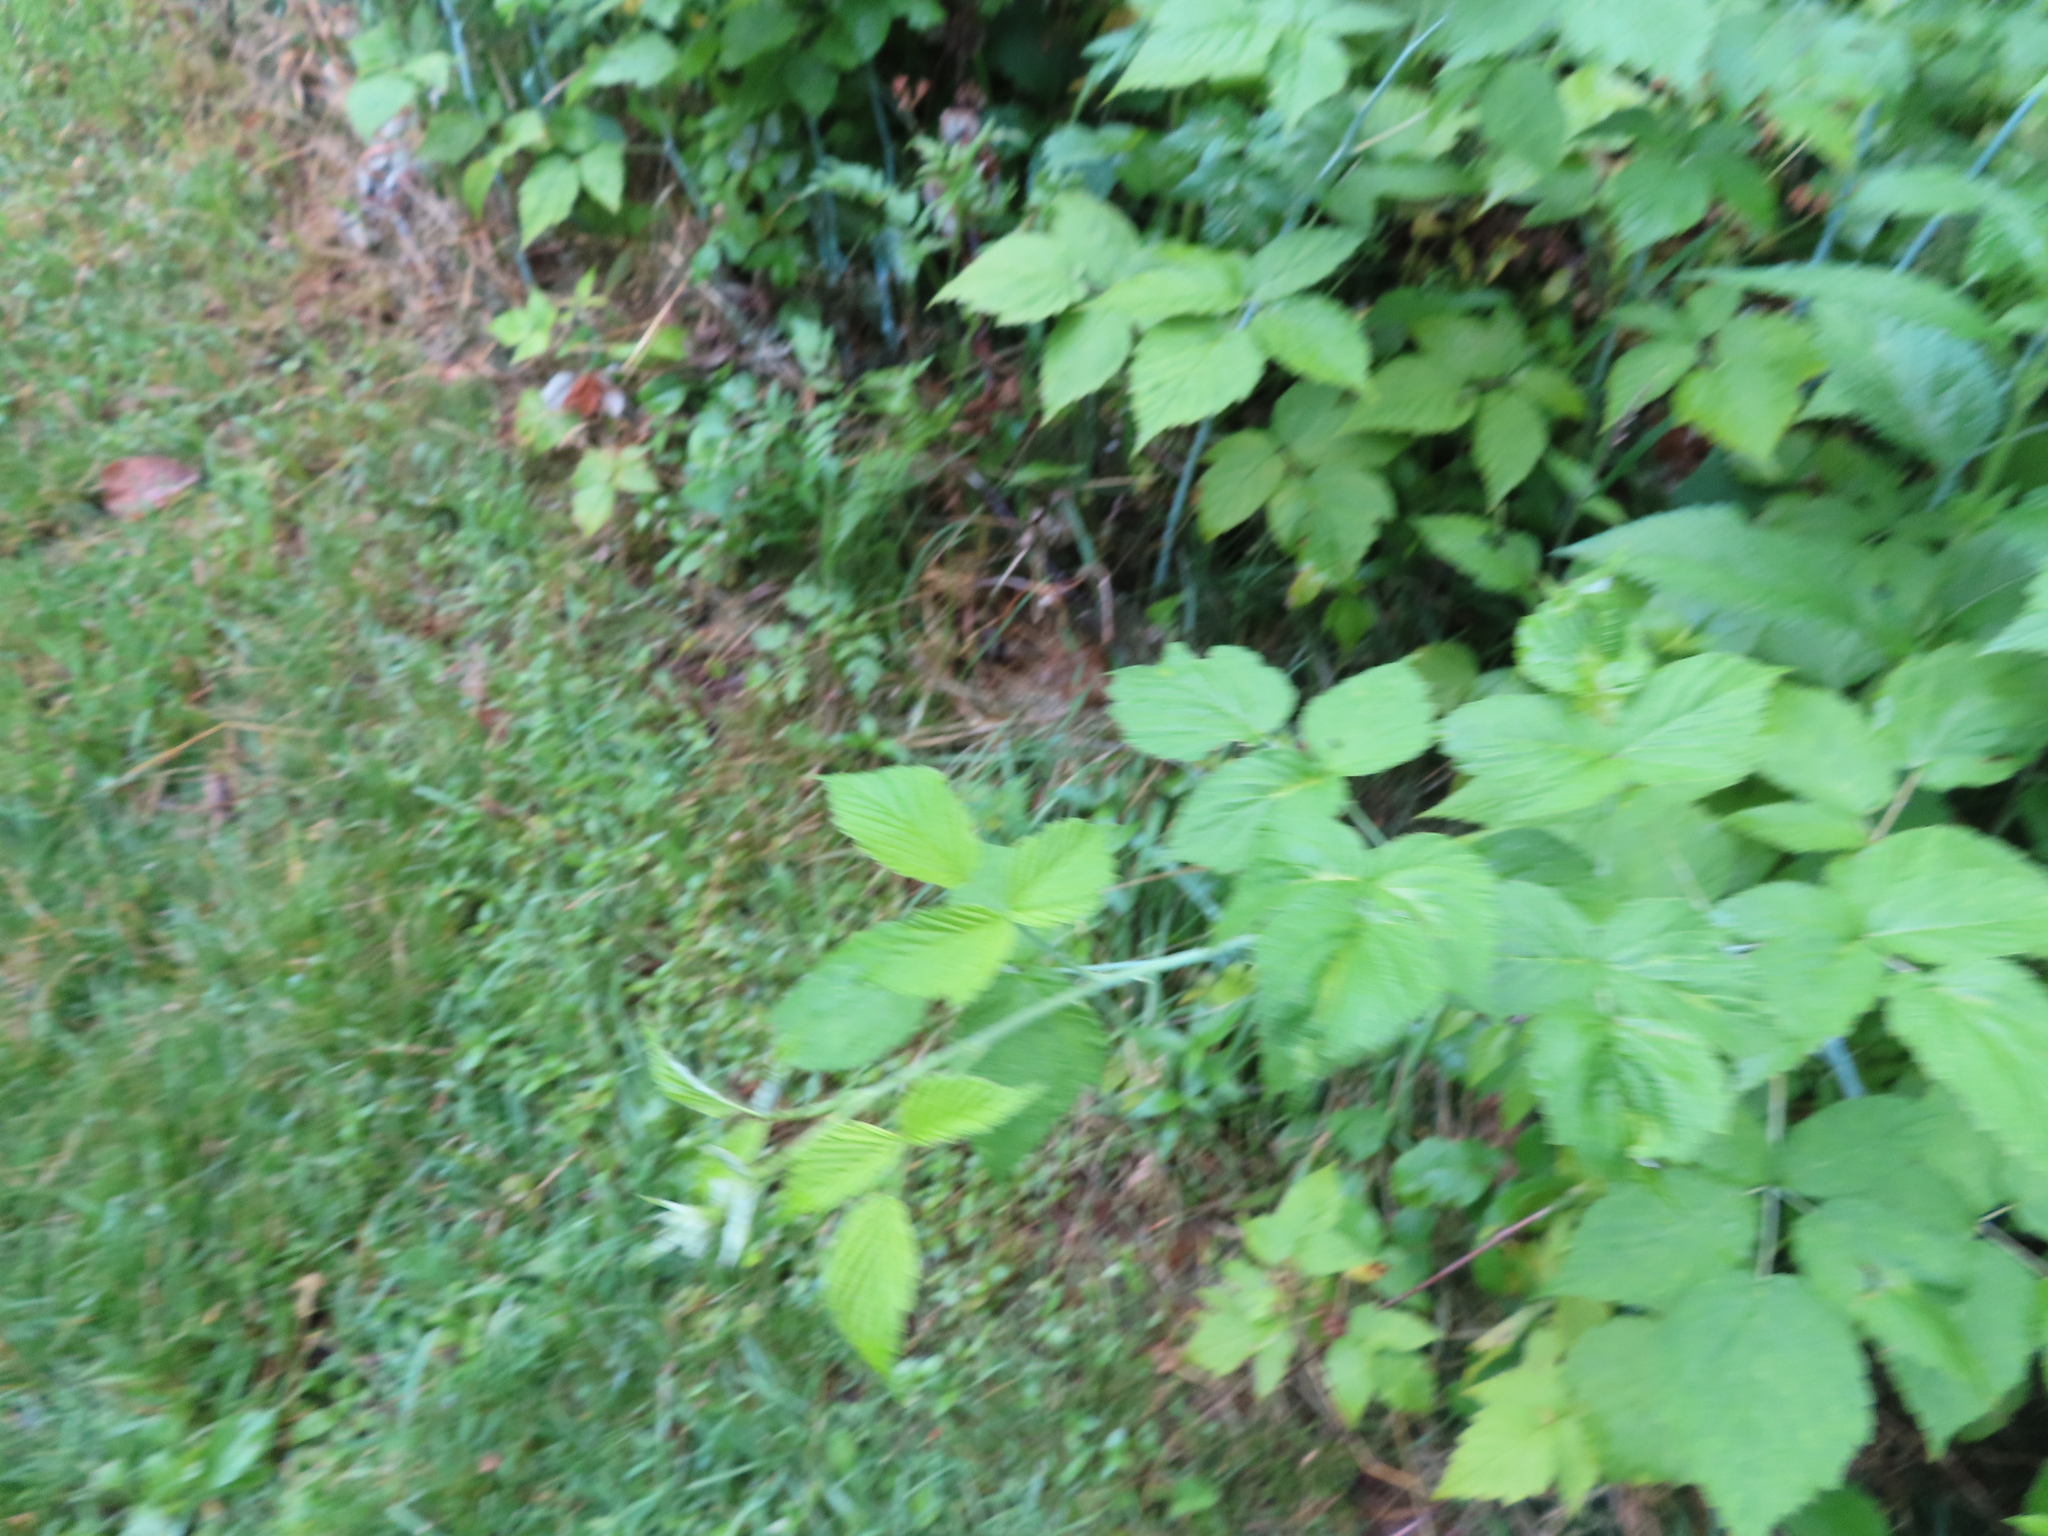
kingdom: Plantae
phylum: Tracheophyta
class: Magnoliopsida
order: Rosales
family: Rosaceae
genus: Rubus
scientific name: Rubus occidentalis
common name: Black raspberry
